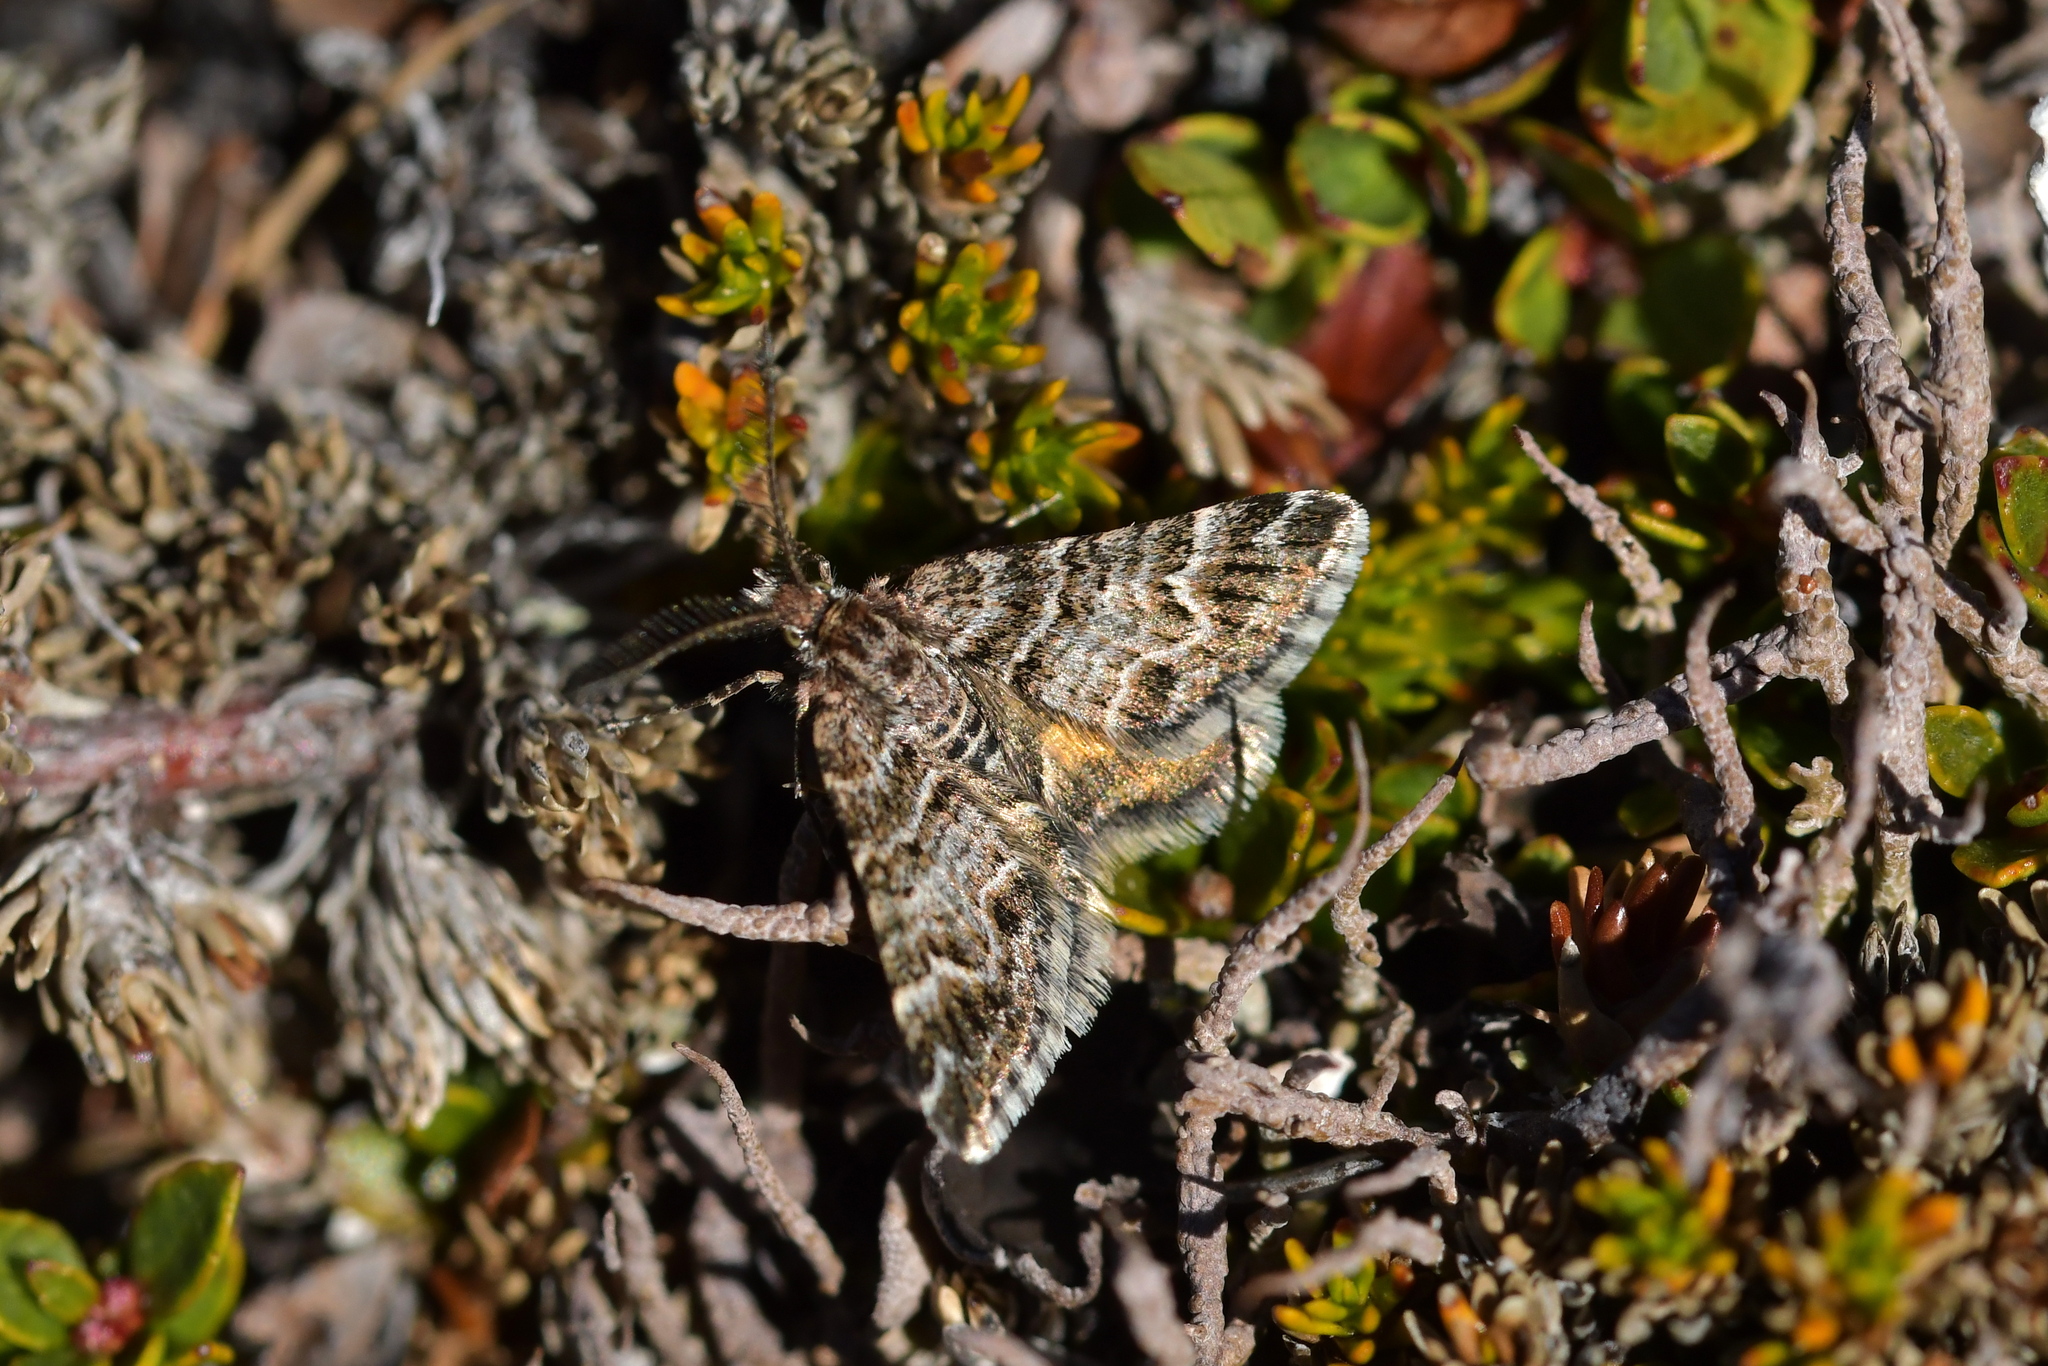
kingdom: Animalia
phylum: Arthropoda
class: Insecta
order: Lepidoptera
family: Geometridae
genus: Arctesthes
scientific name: Arctesthes catapyrrha
